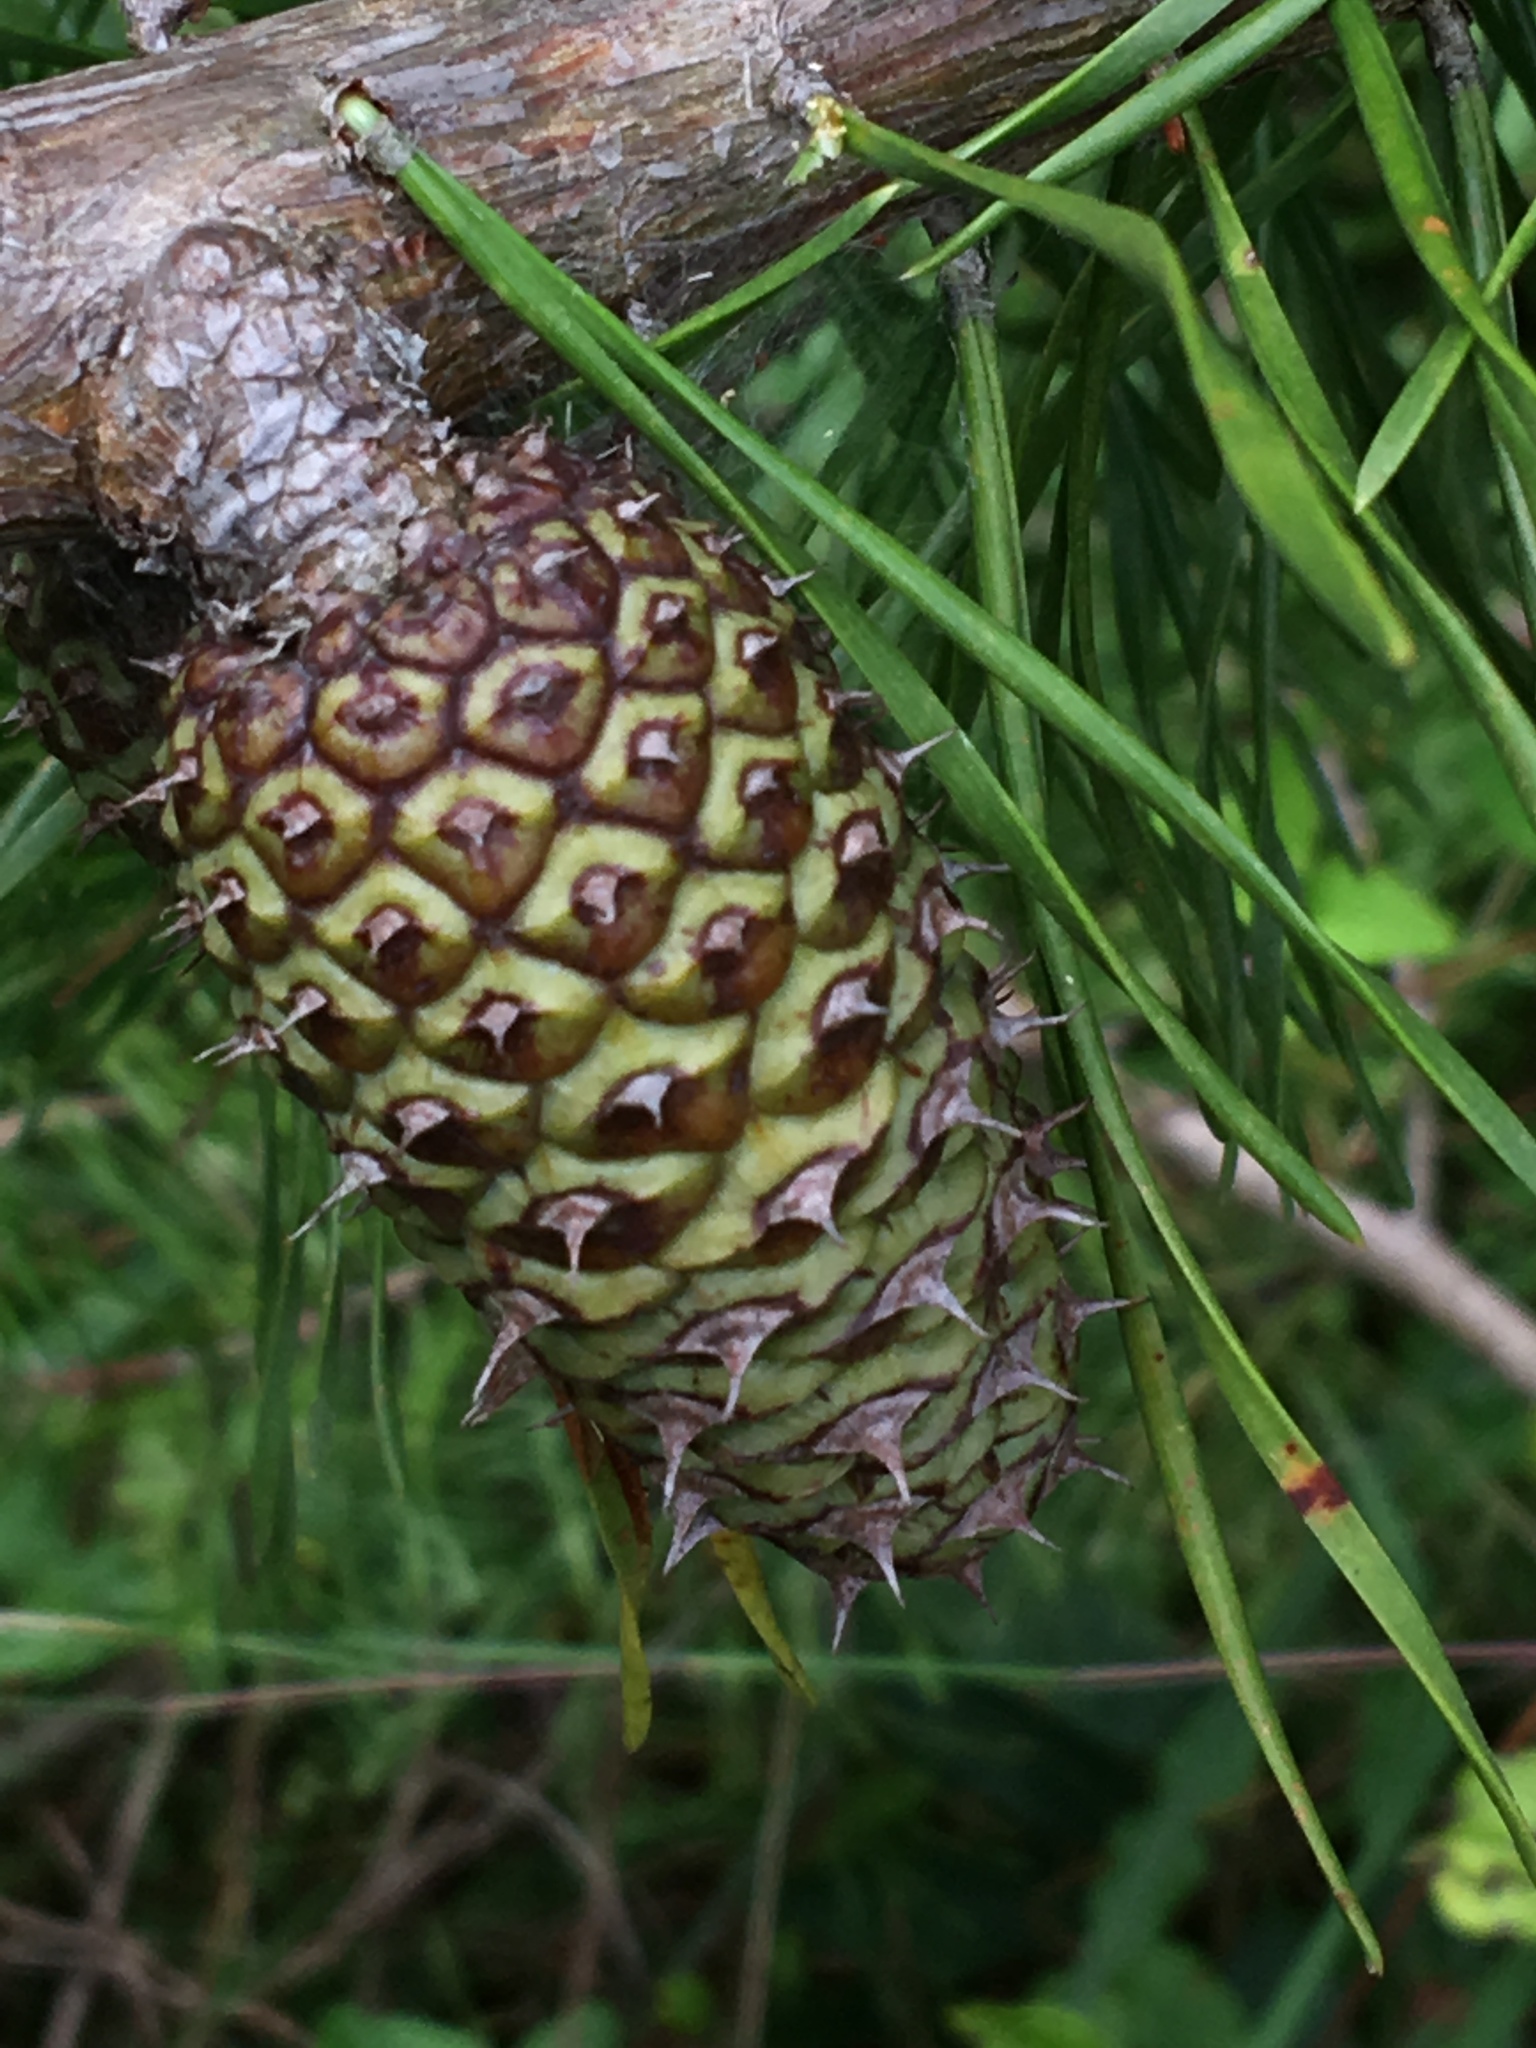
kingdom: Plantae
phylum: Tracheophyta
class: Pinopsida
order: Pinales
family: Pinaceae
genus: Pinus
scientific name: Pinus virginiana
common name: Scrub pine
